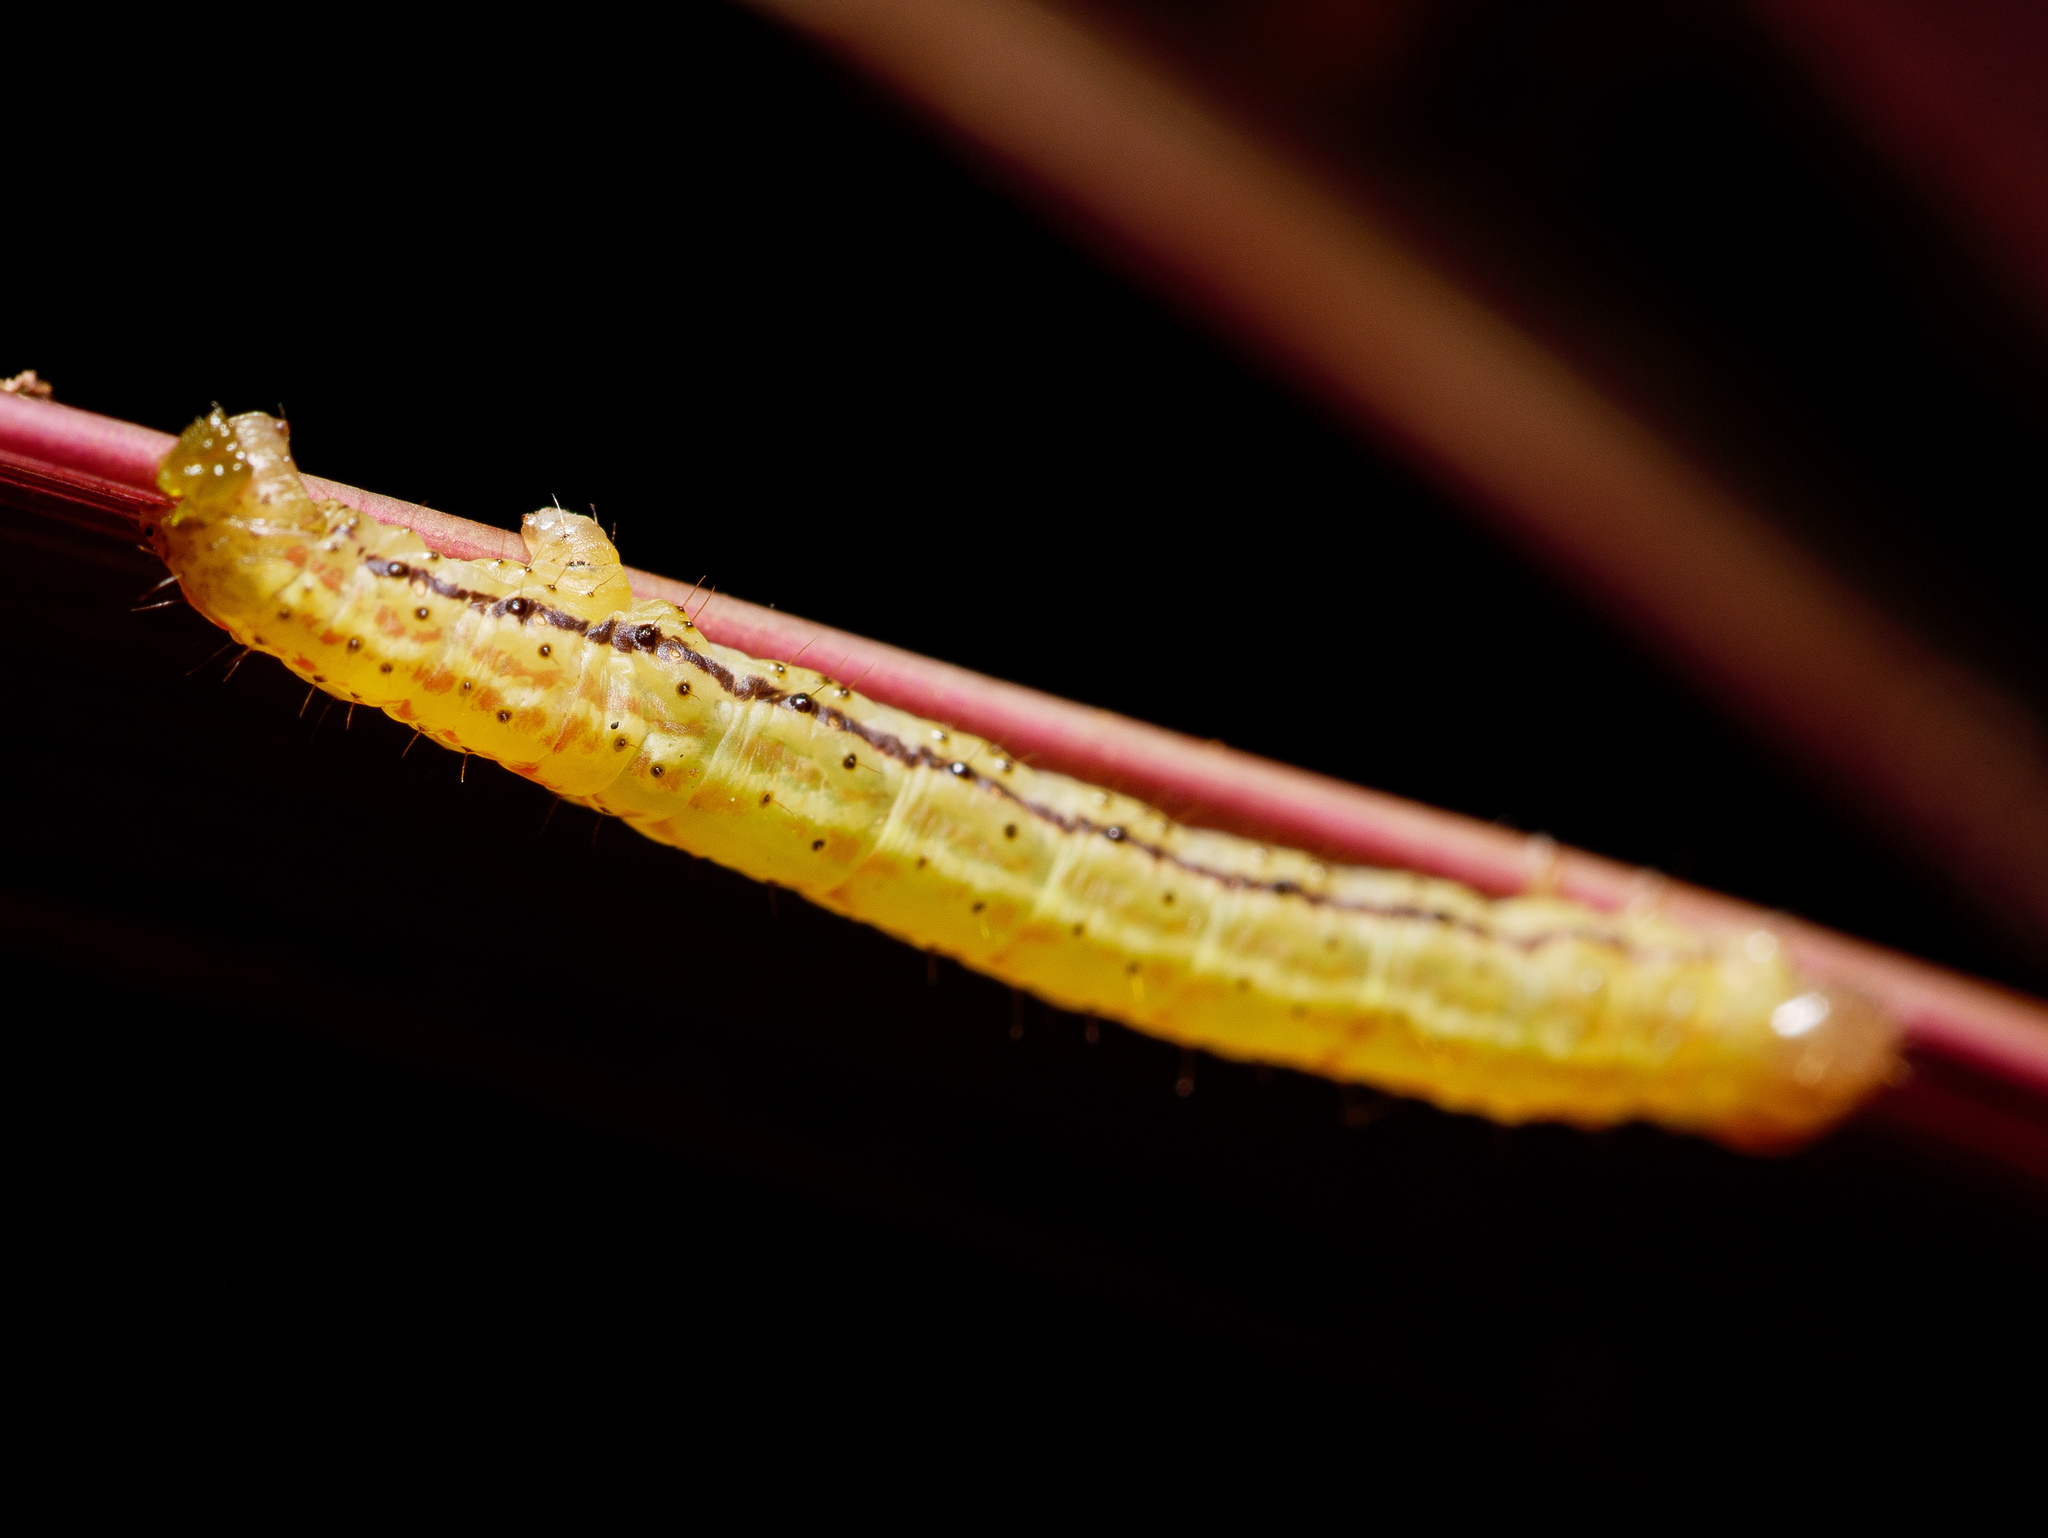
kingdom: Animalia
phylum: Arthropoda
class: Insecta
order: Lepidoptera
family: Geometridae
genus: Epiphryne
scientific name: Epiphryne verriculata
